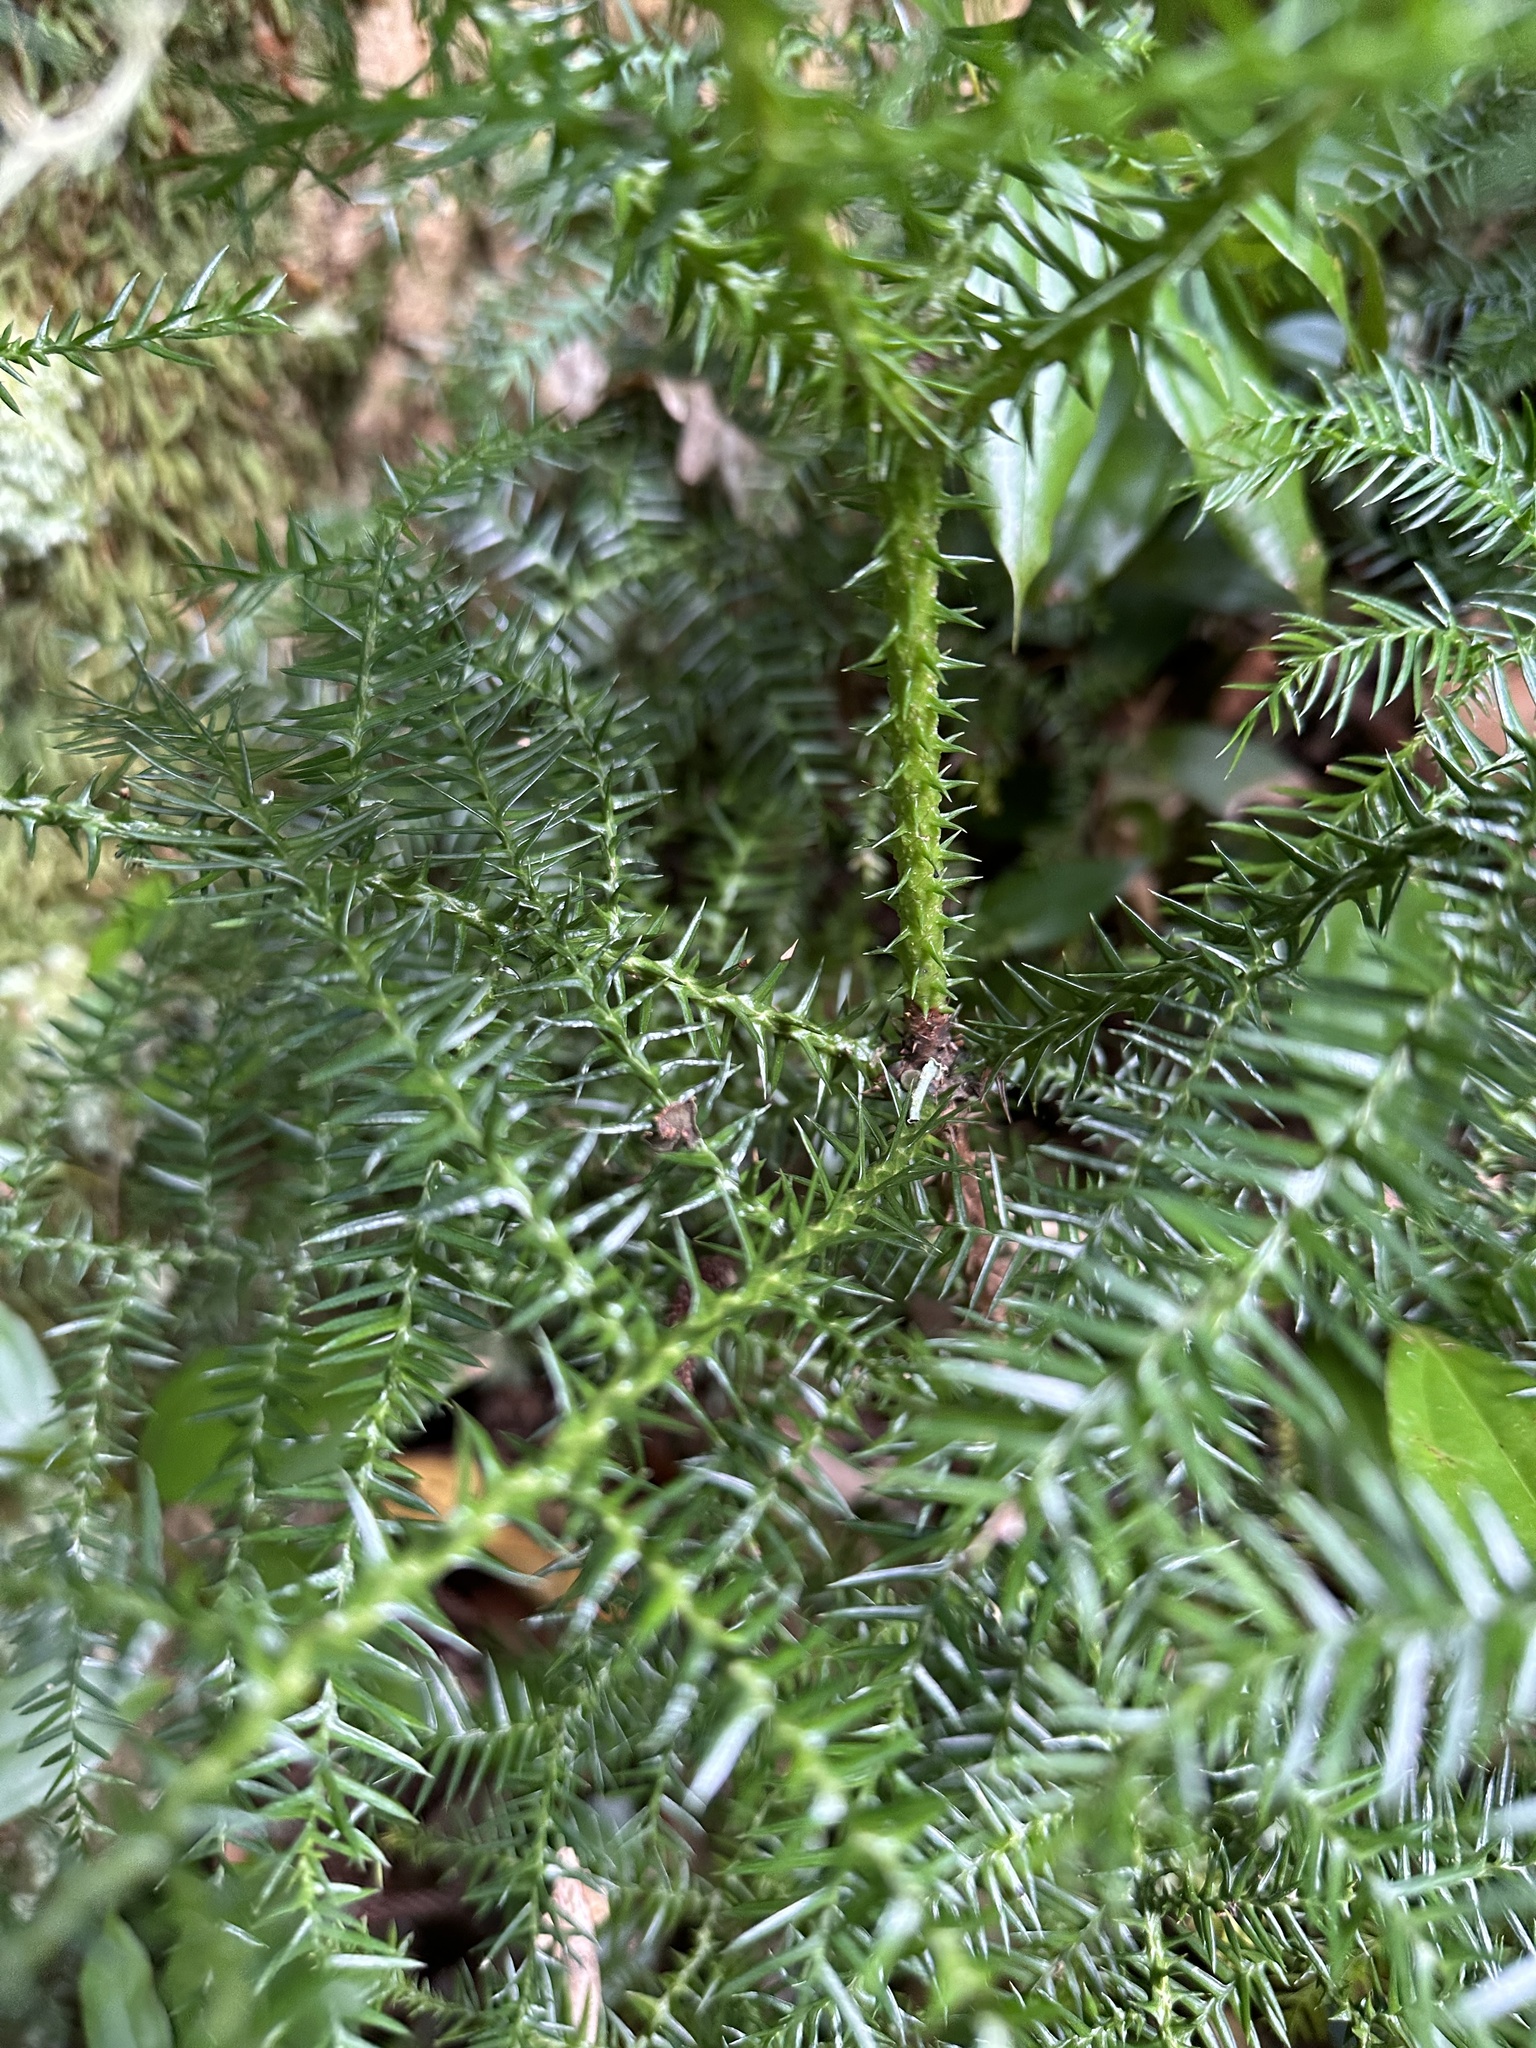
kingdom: Plantae
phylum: Tracheophyta
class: Pinopsida
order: Pinales
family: Cupressaceae
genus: Cryptomeria
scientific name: Cryptomeria japonica
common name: Japanese cedar
